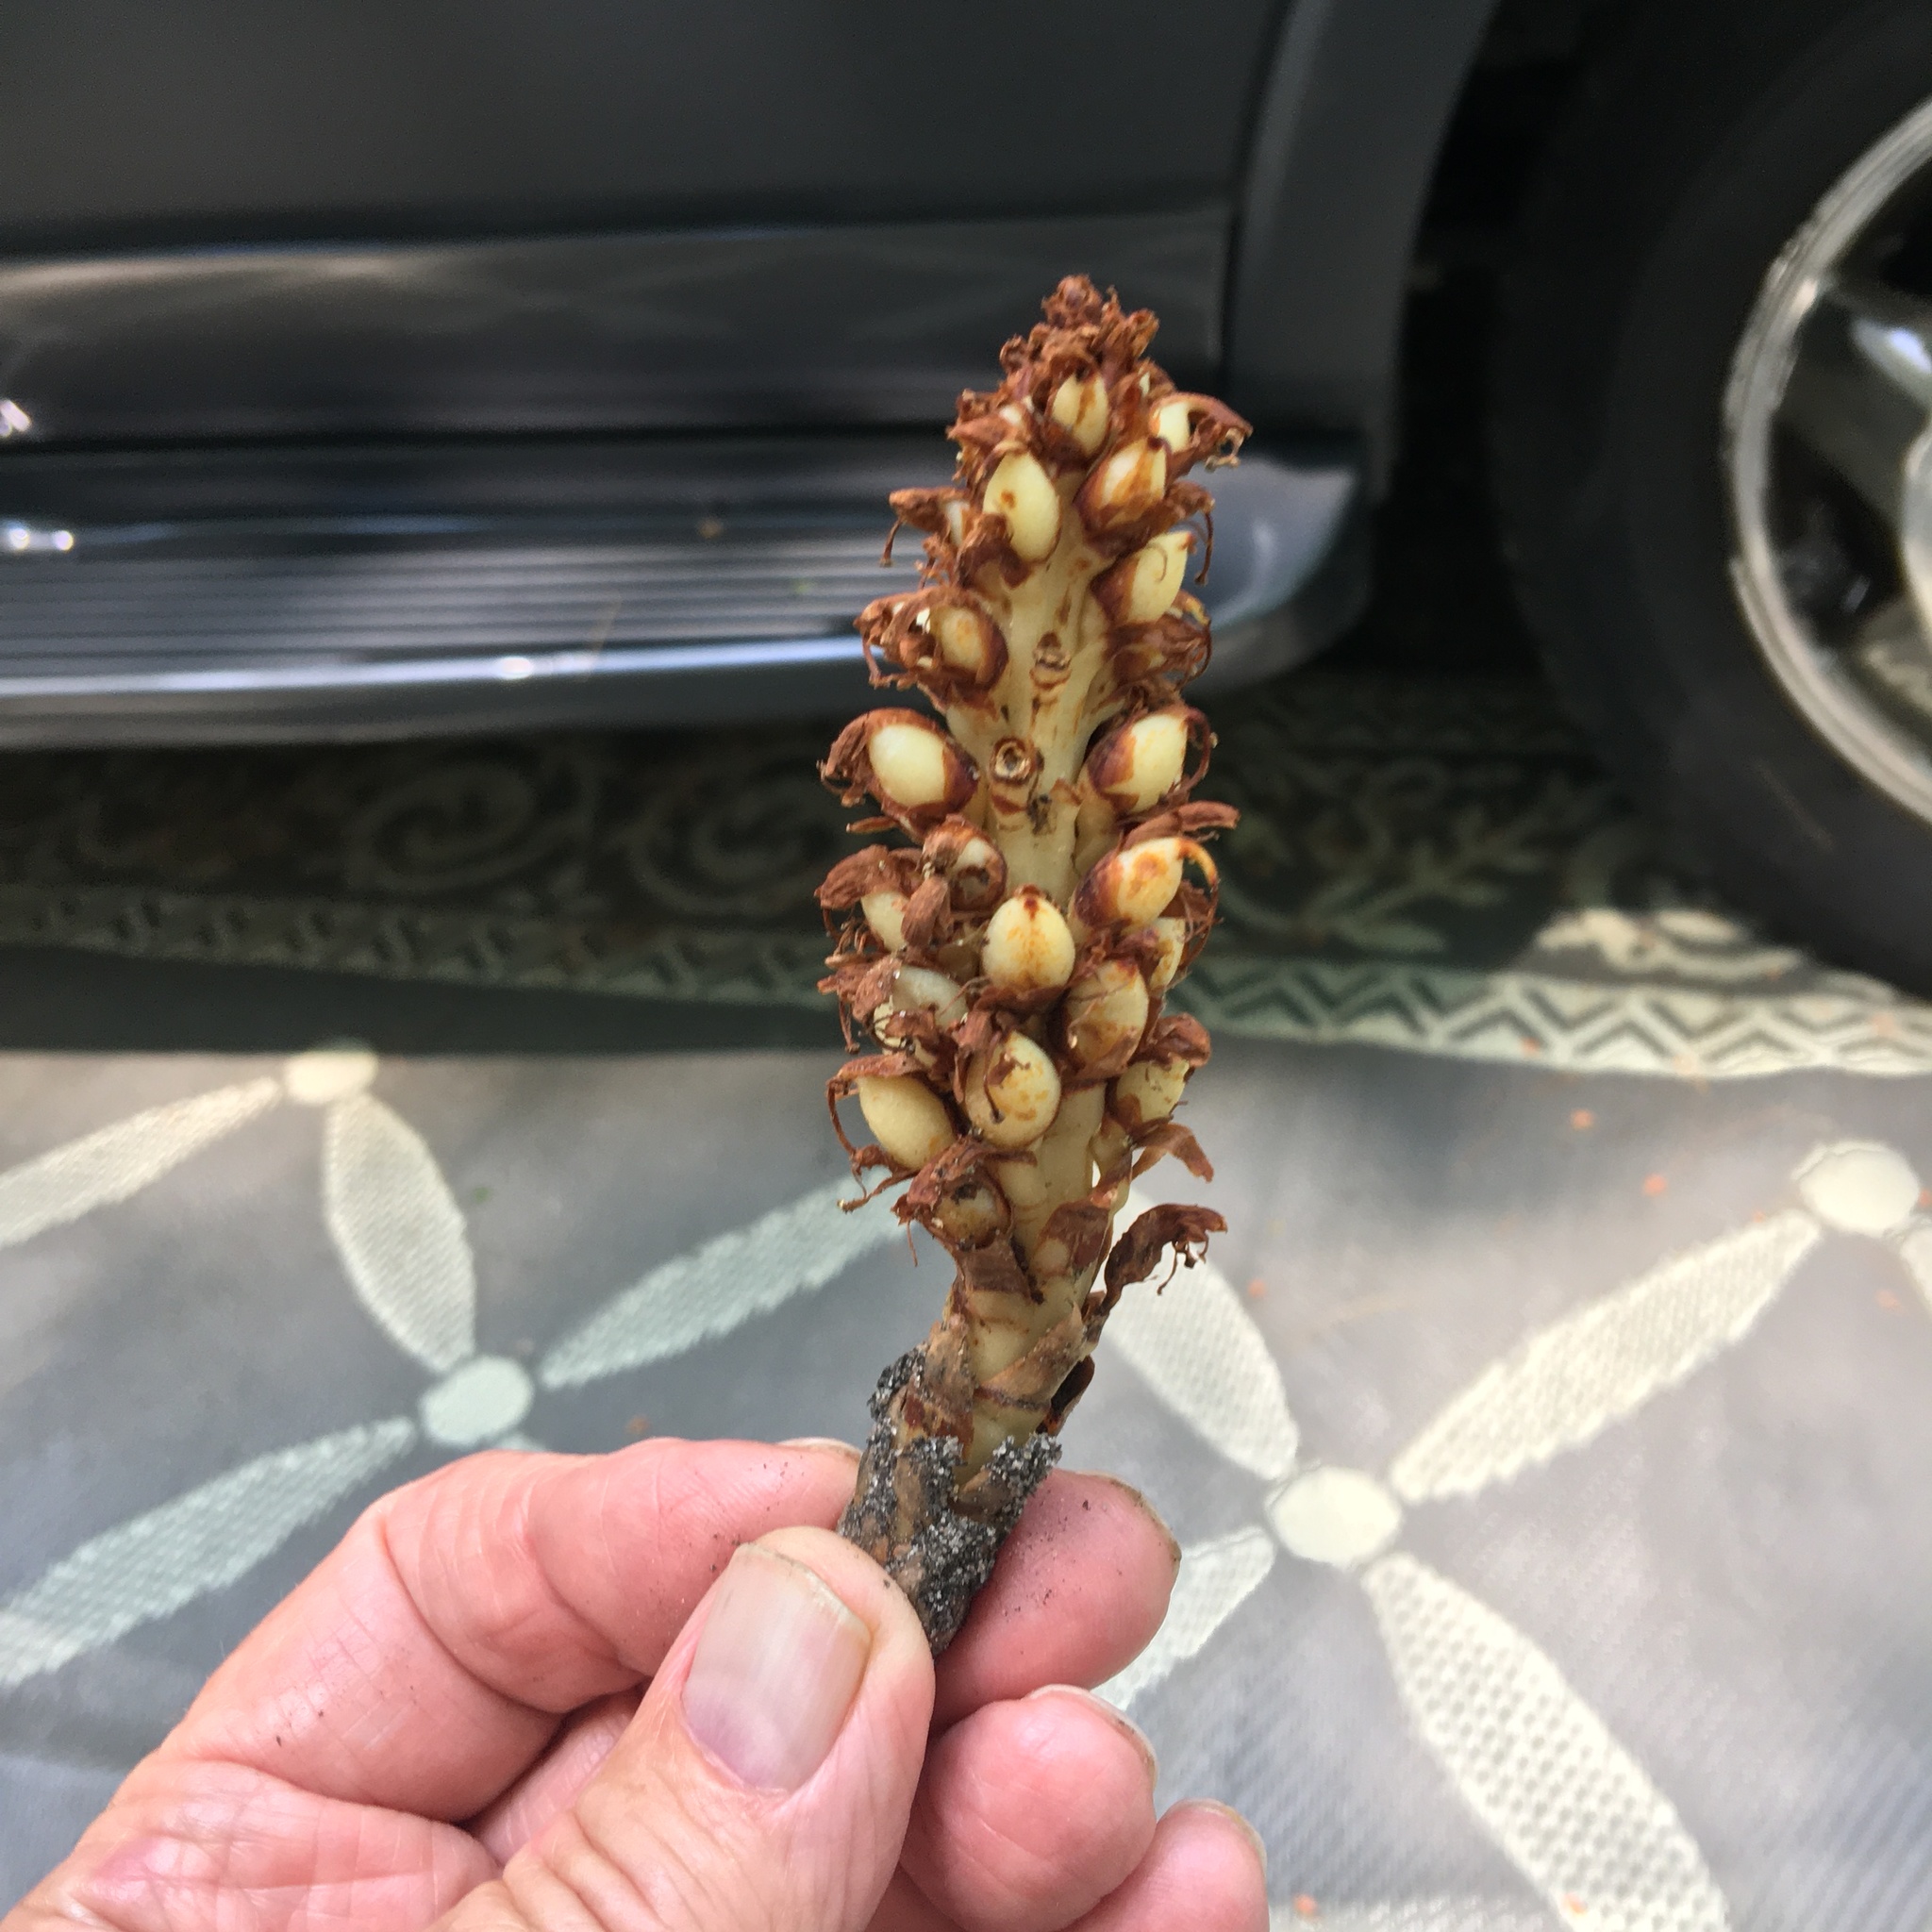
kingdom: Plantae
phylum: Tracheophyta
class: Magnoliopsida
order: Lamiales
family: Orobanchaceae
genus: Conopholis
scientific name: Conopholis americana
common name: American cancer-root
